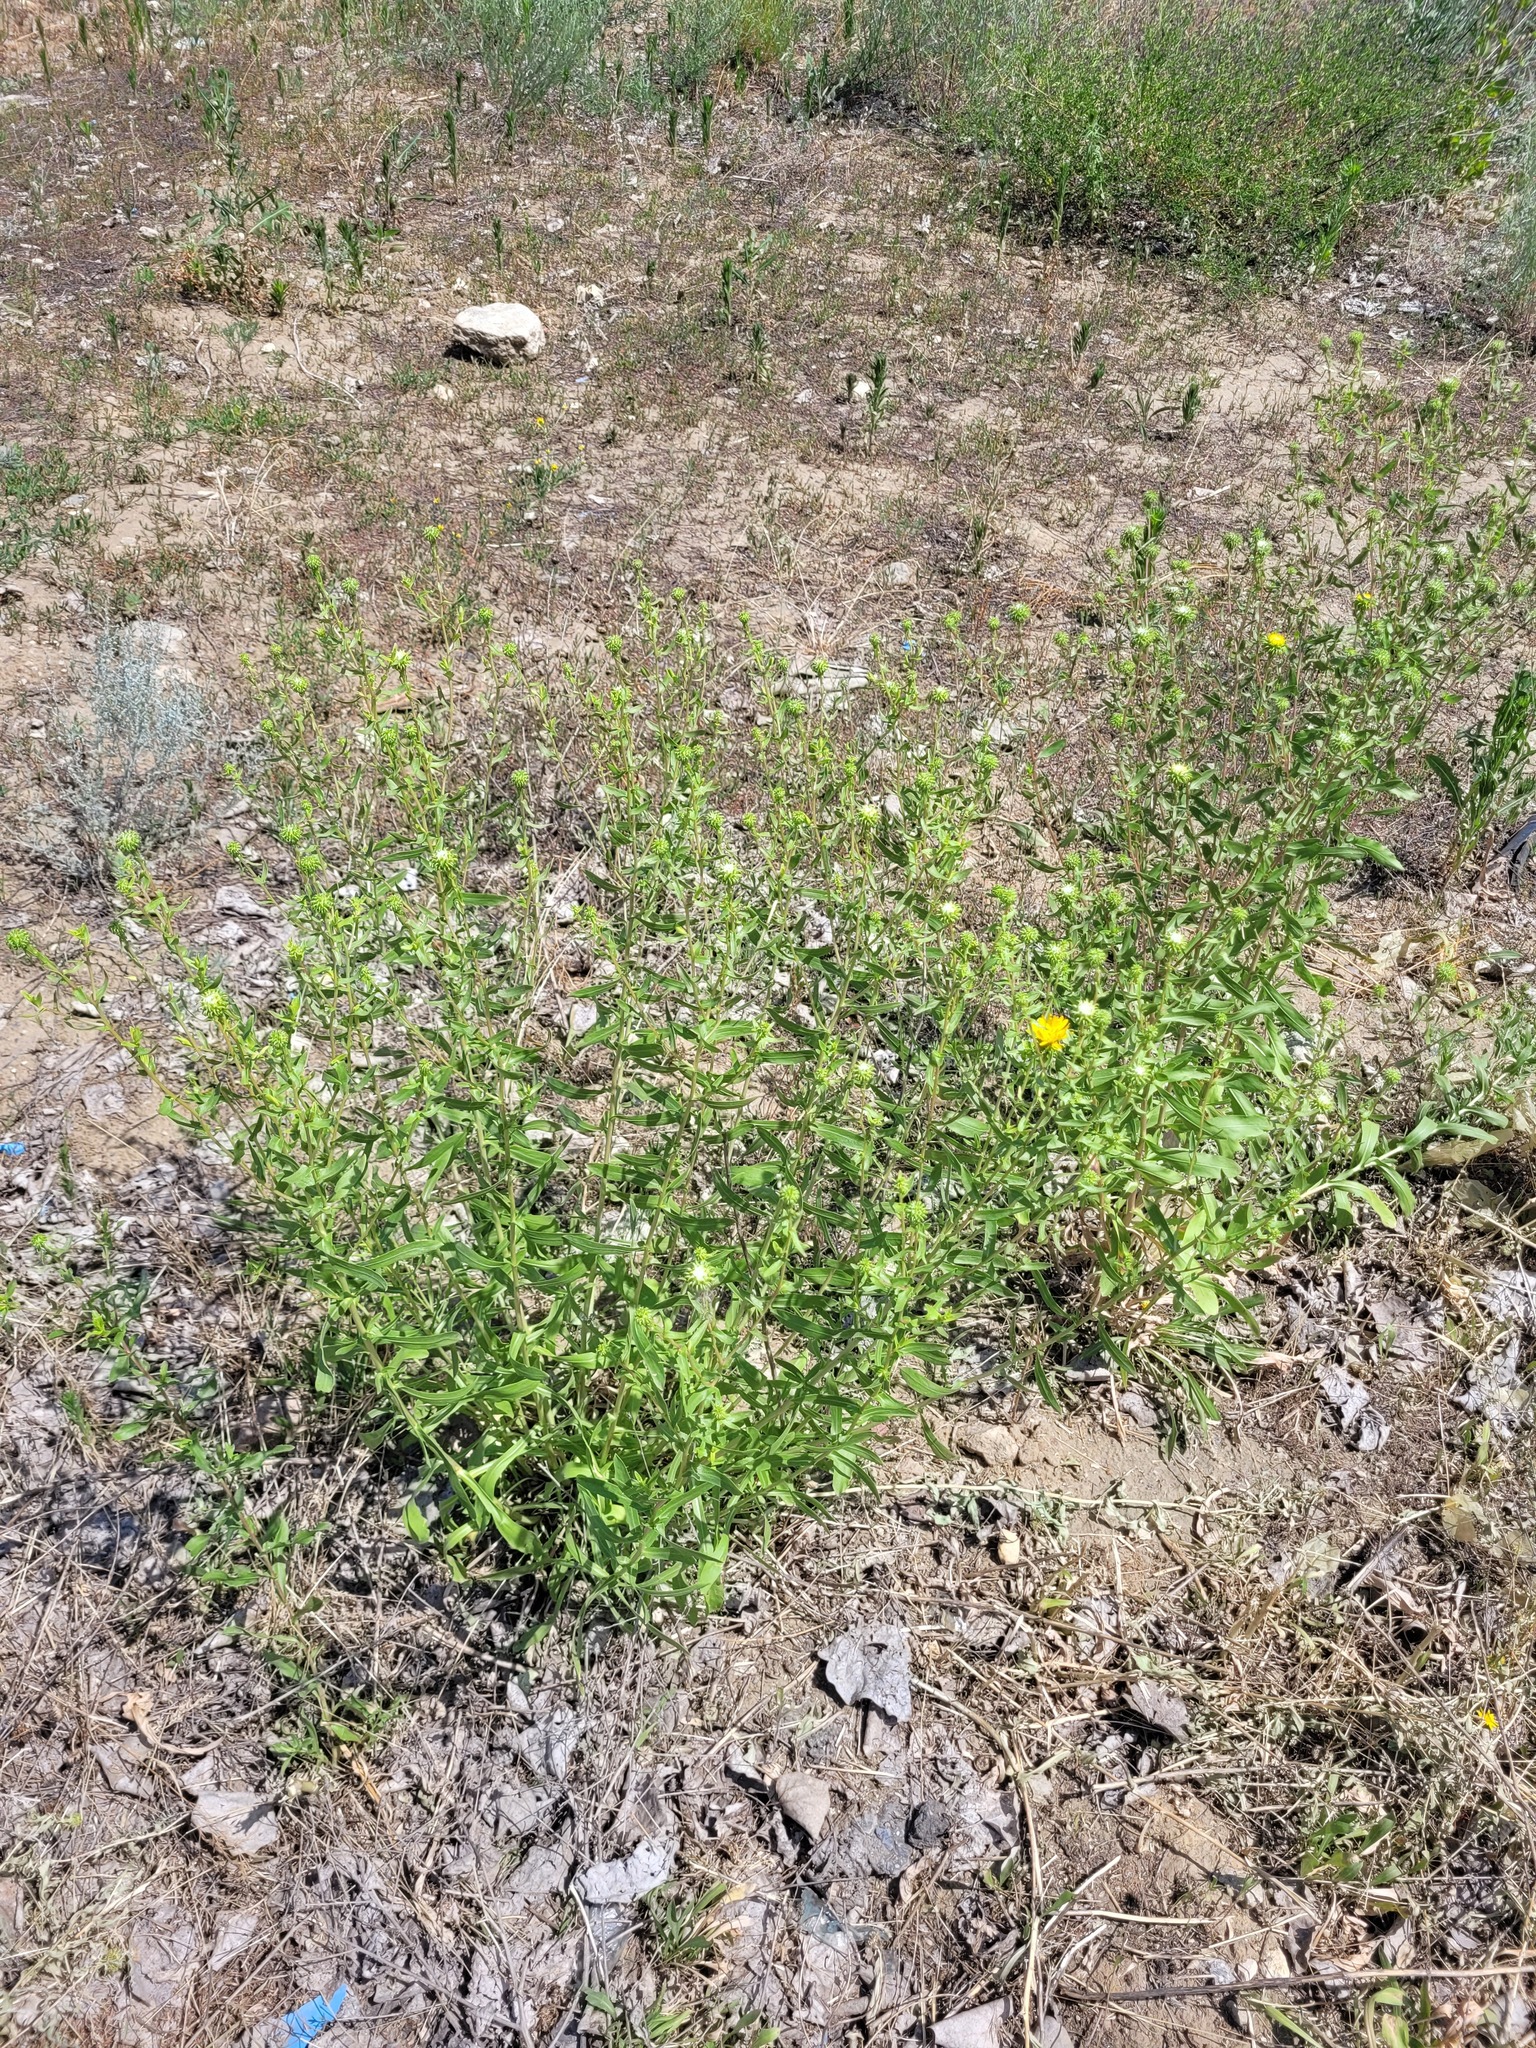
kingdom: Plantae
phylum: Tracheophyta
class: Magnoliopsida
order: Asterales
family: Asteraceae
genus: Grindelia
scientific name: Grindelia squarrosa
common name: Curly-cup gumweed
